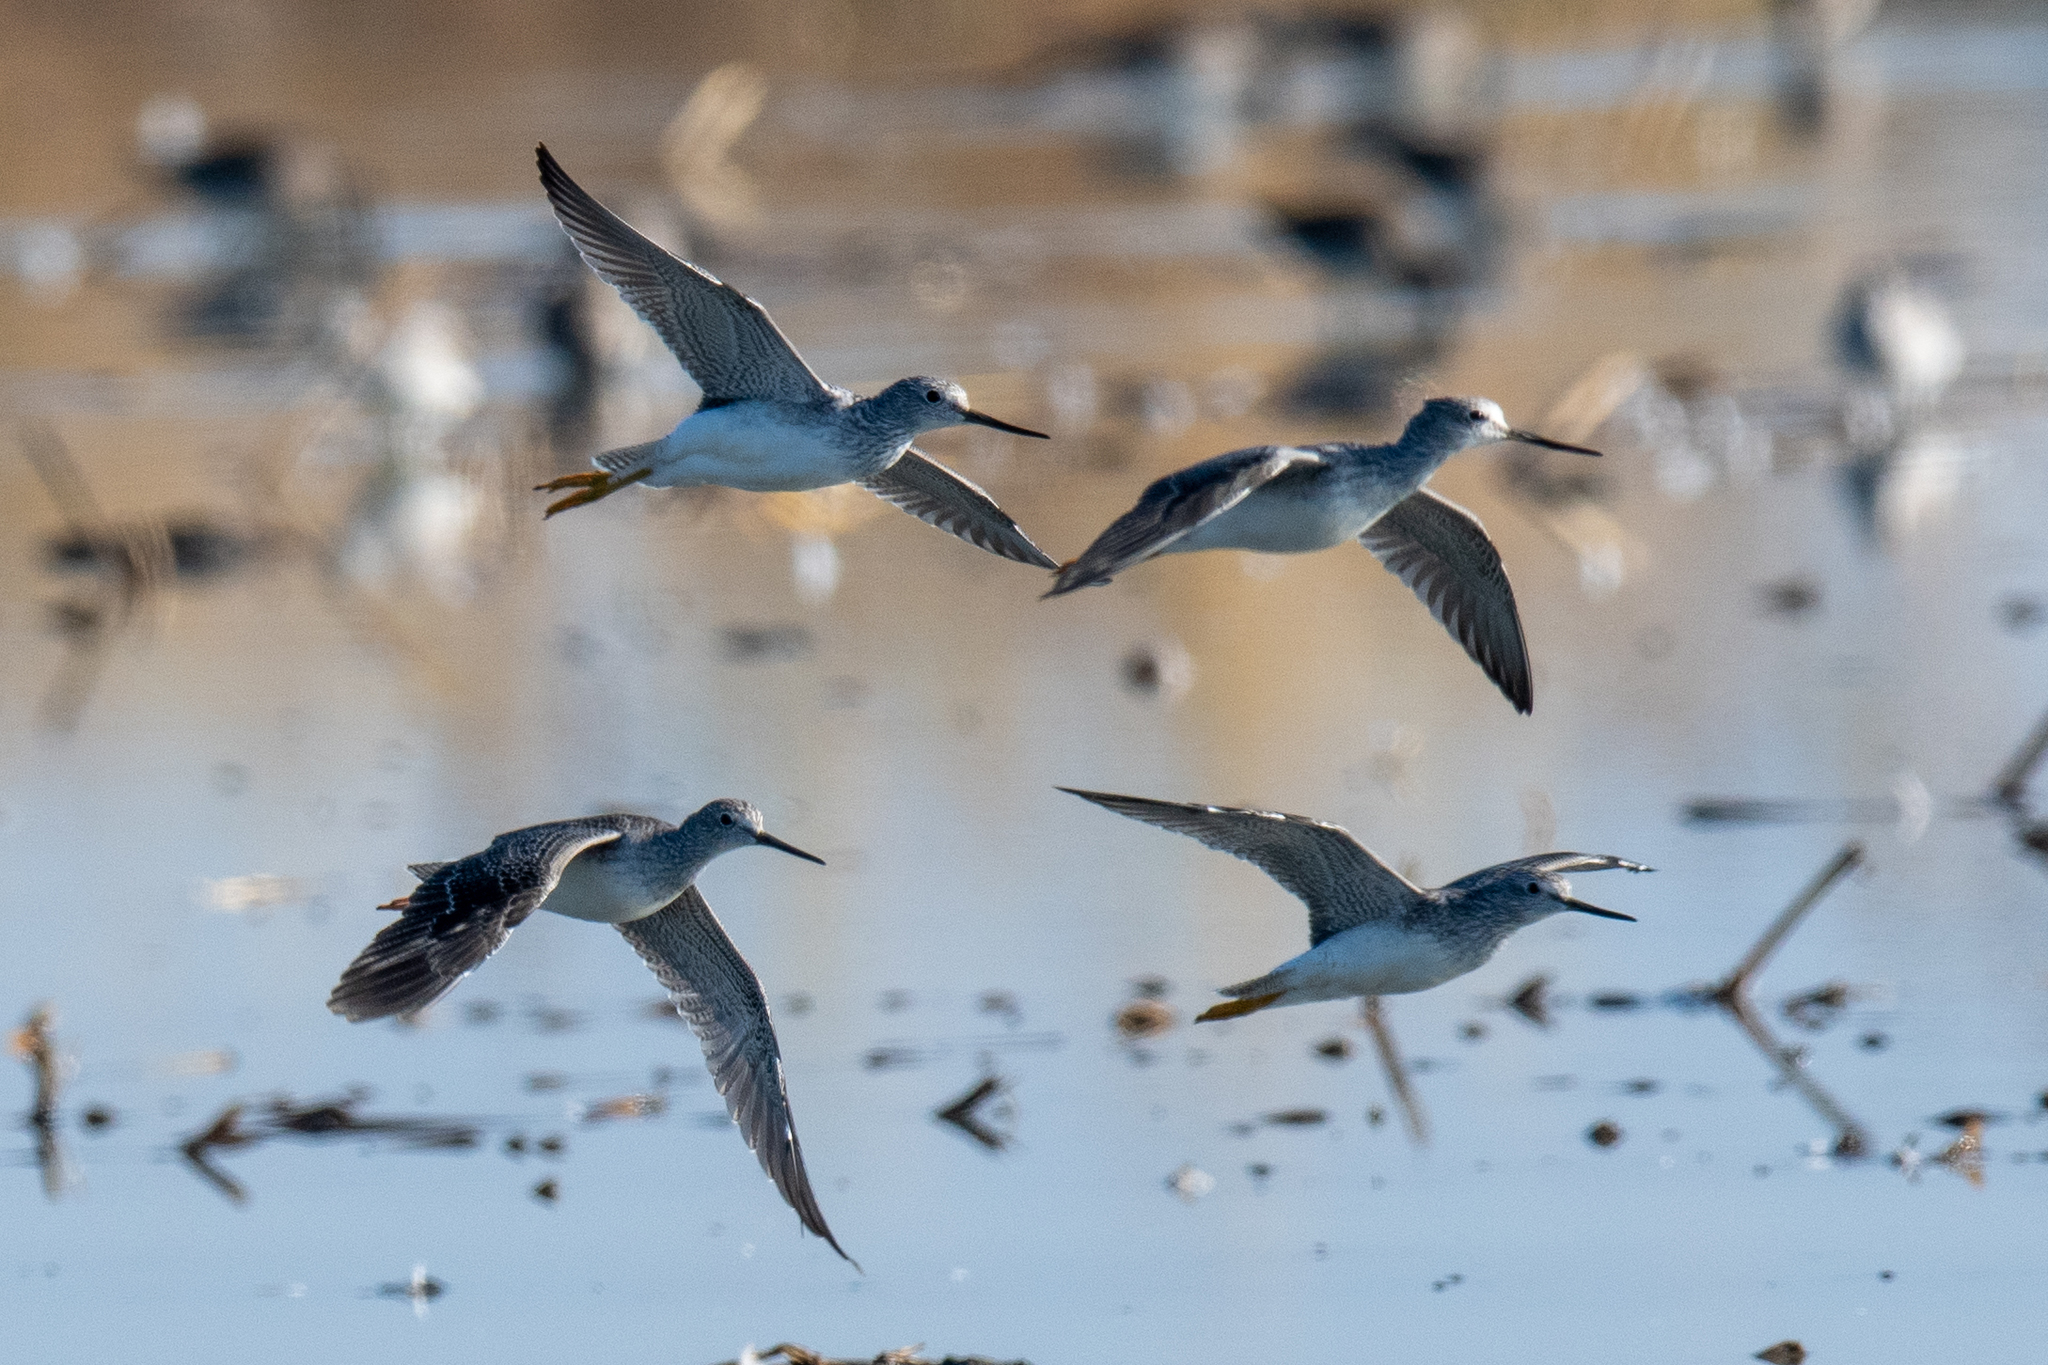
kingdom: Animalia
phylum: Chordata
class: Aves
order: Charadriiformes
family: Scolopacidae
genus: Tringa
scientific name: Tringa melanoleuca
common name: Greater yellowlegs
